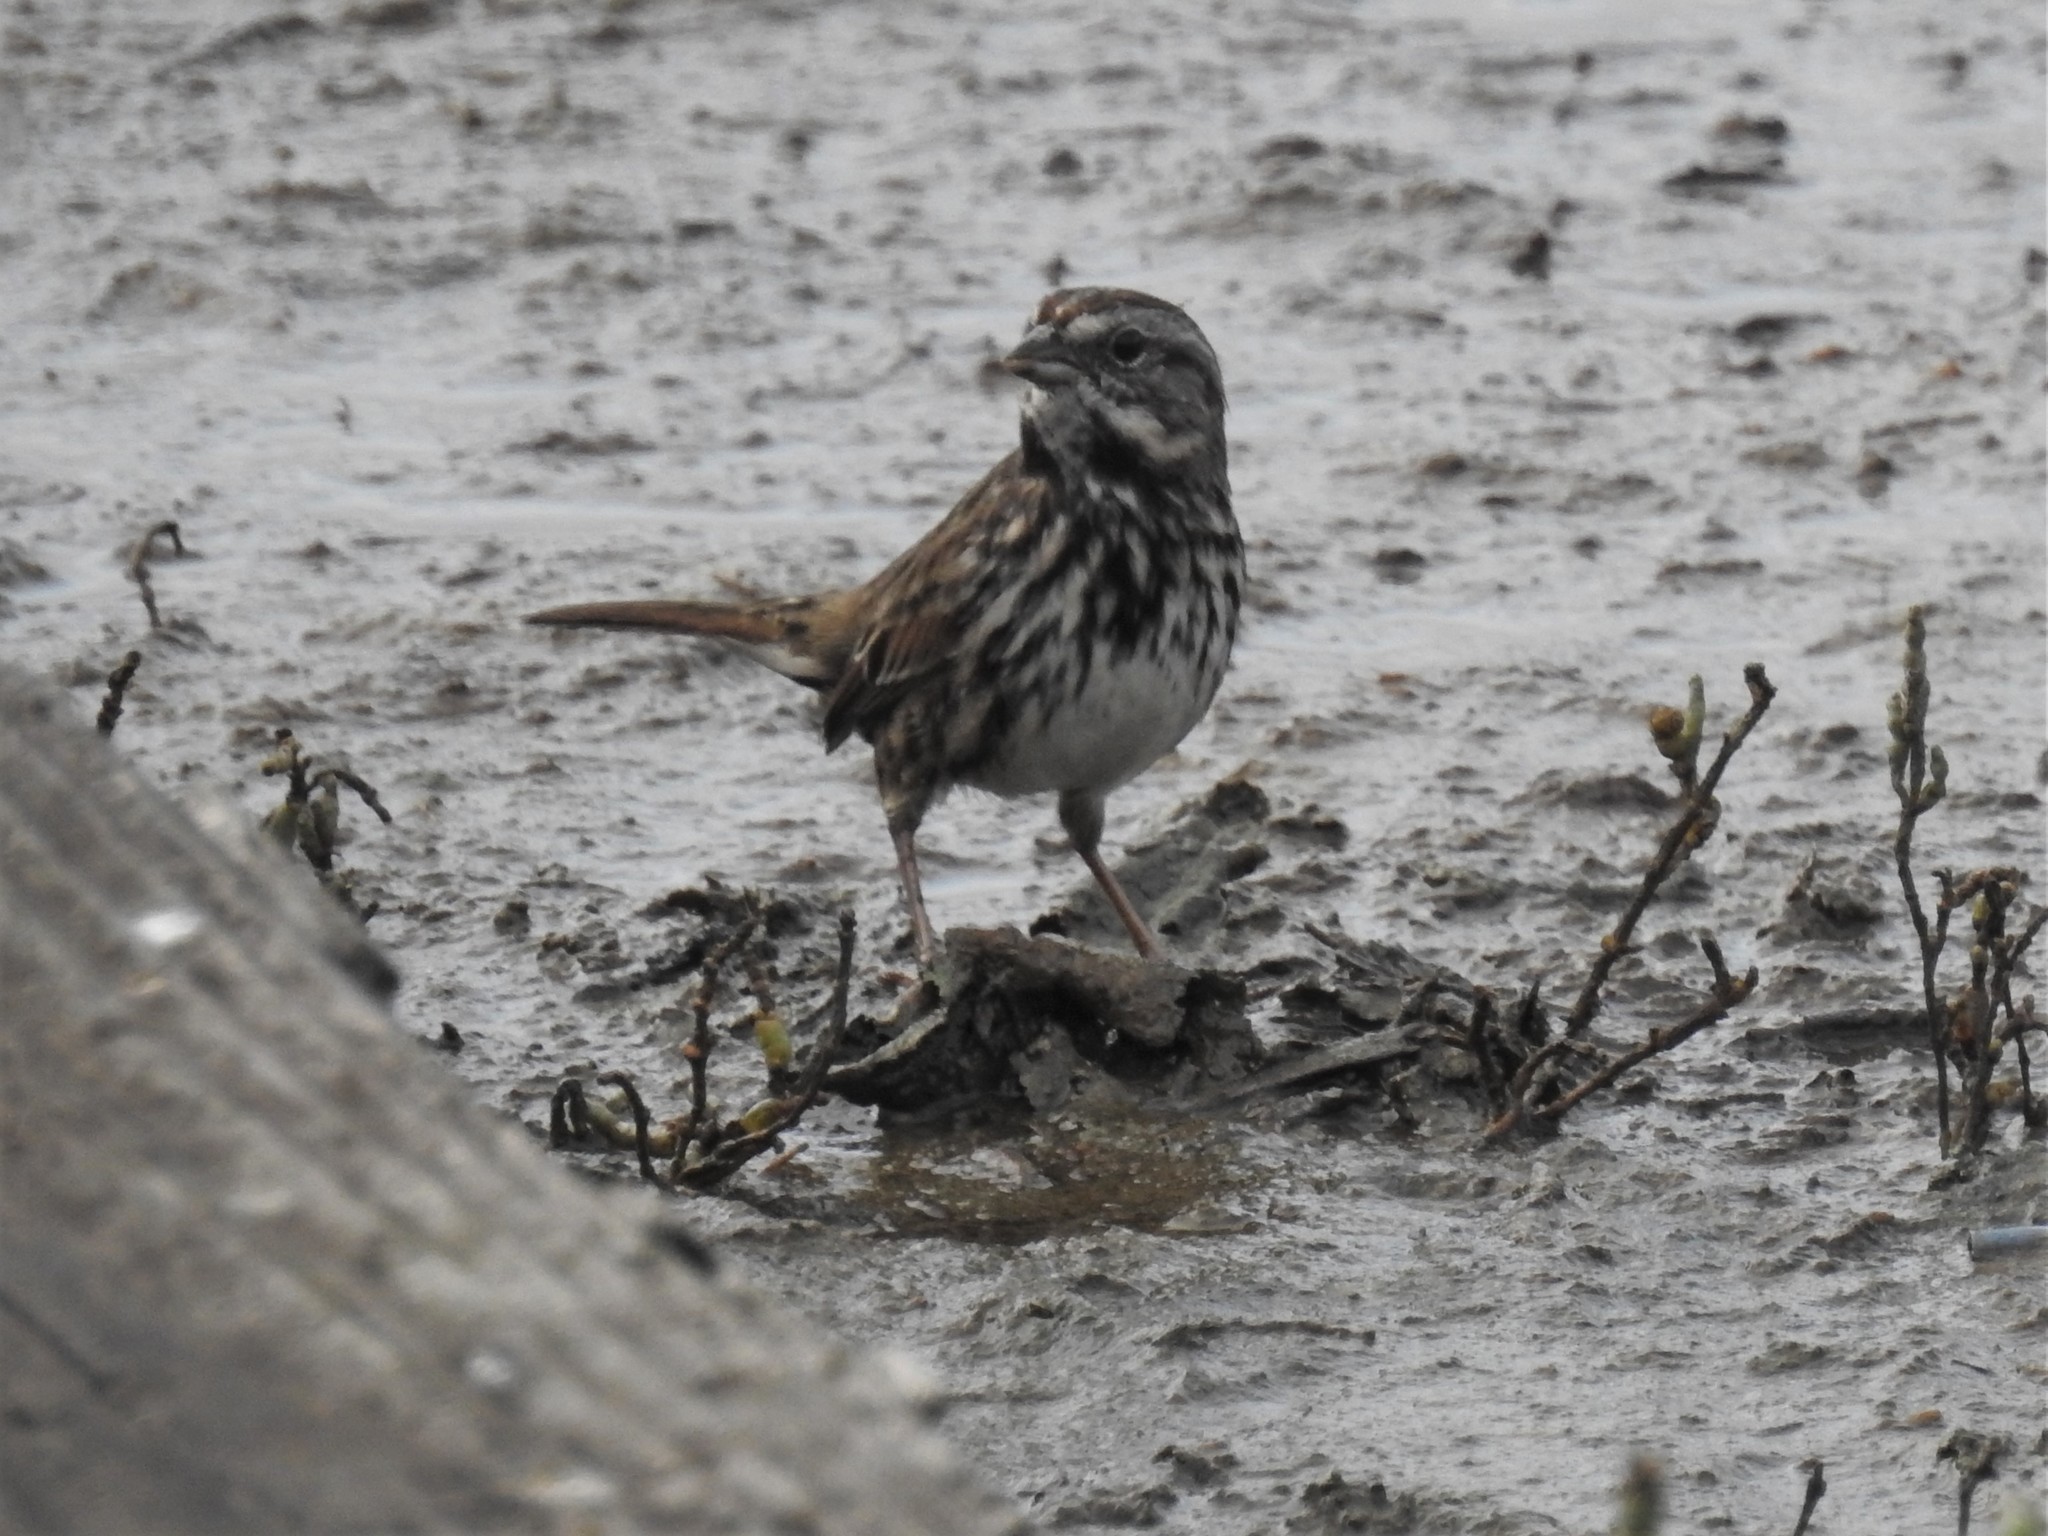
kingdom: Animalia
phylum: Chordata
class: Aves
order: Passeriformes
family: Passerellidae
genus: Melospiza
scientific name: Melospiza melodia
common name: Song sparrow
